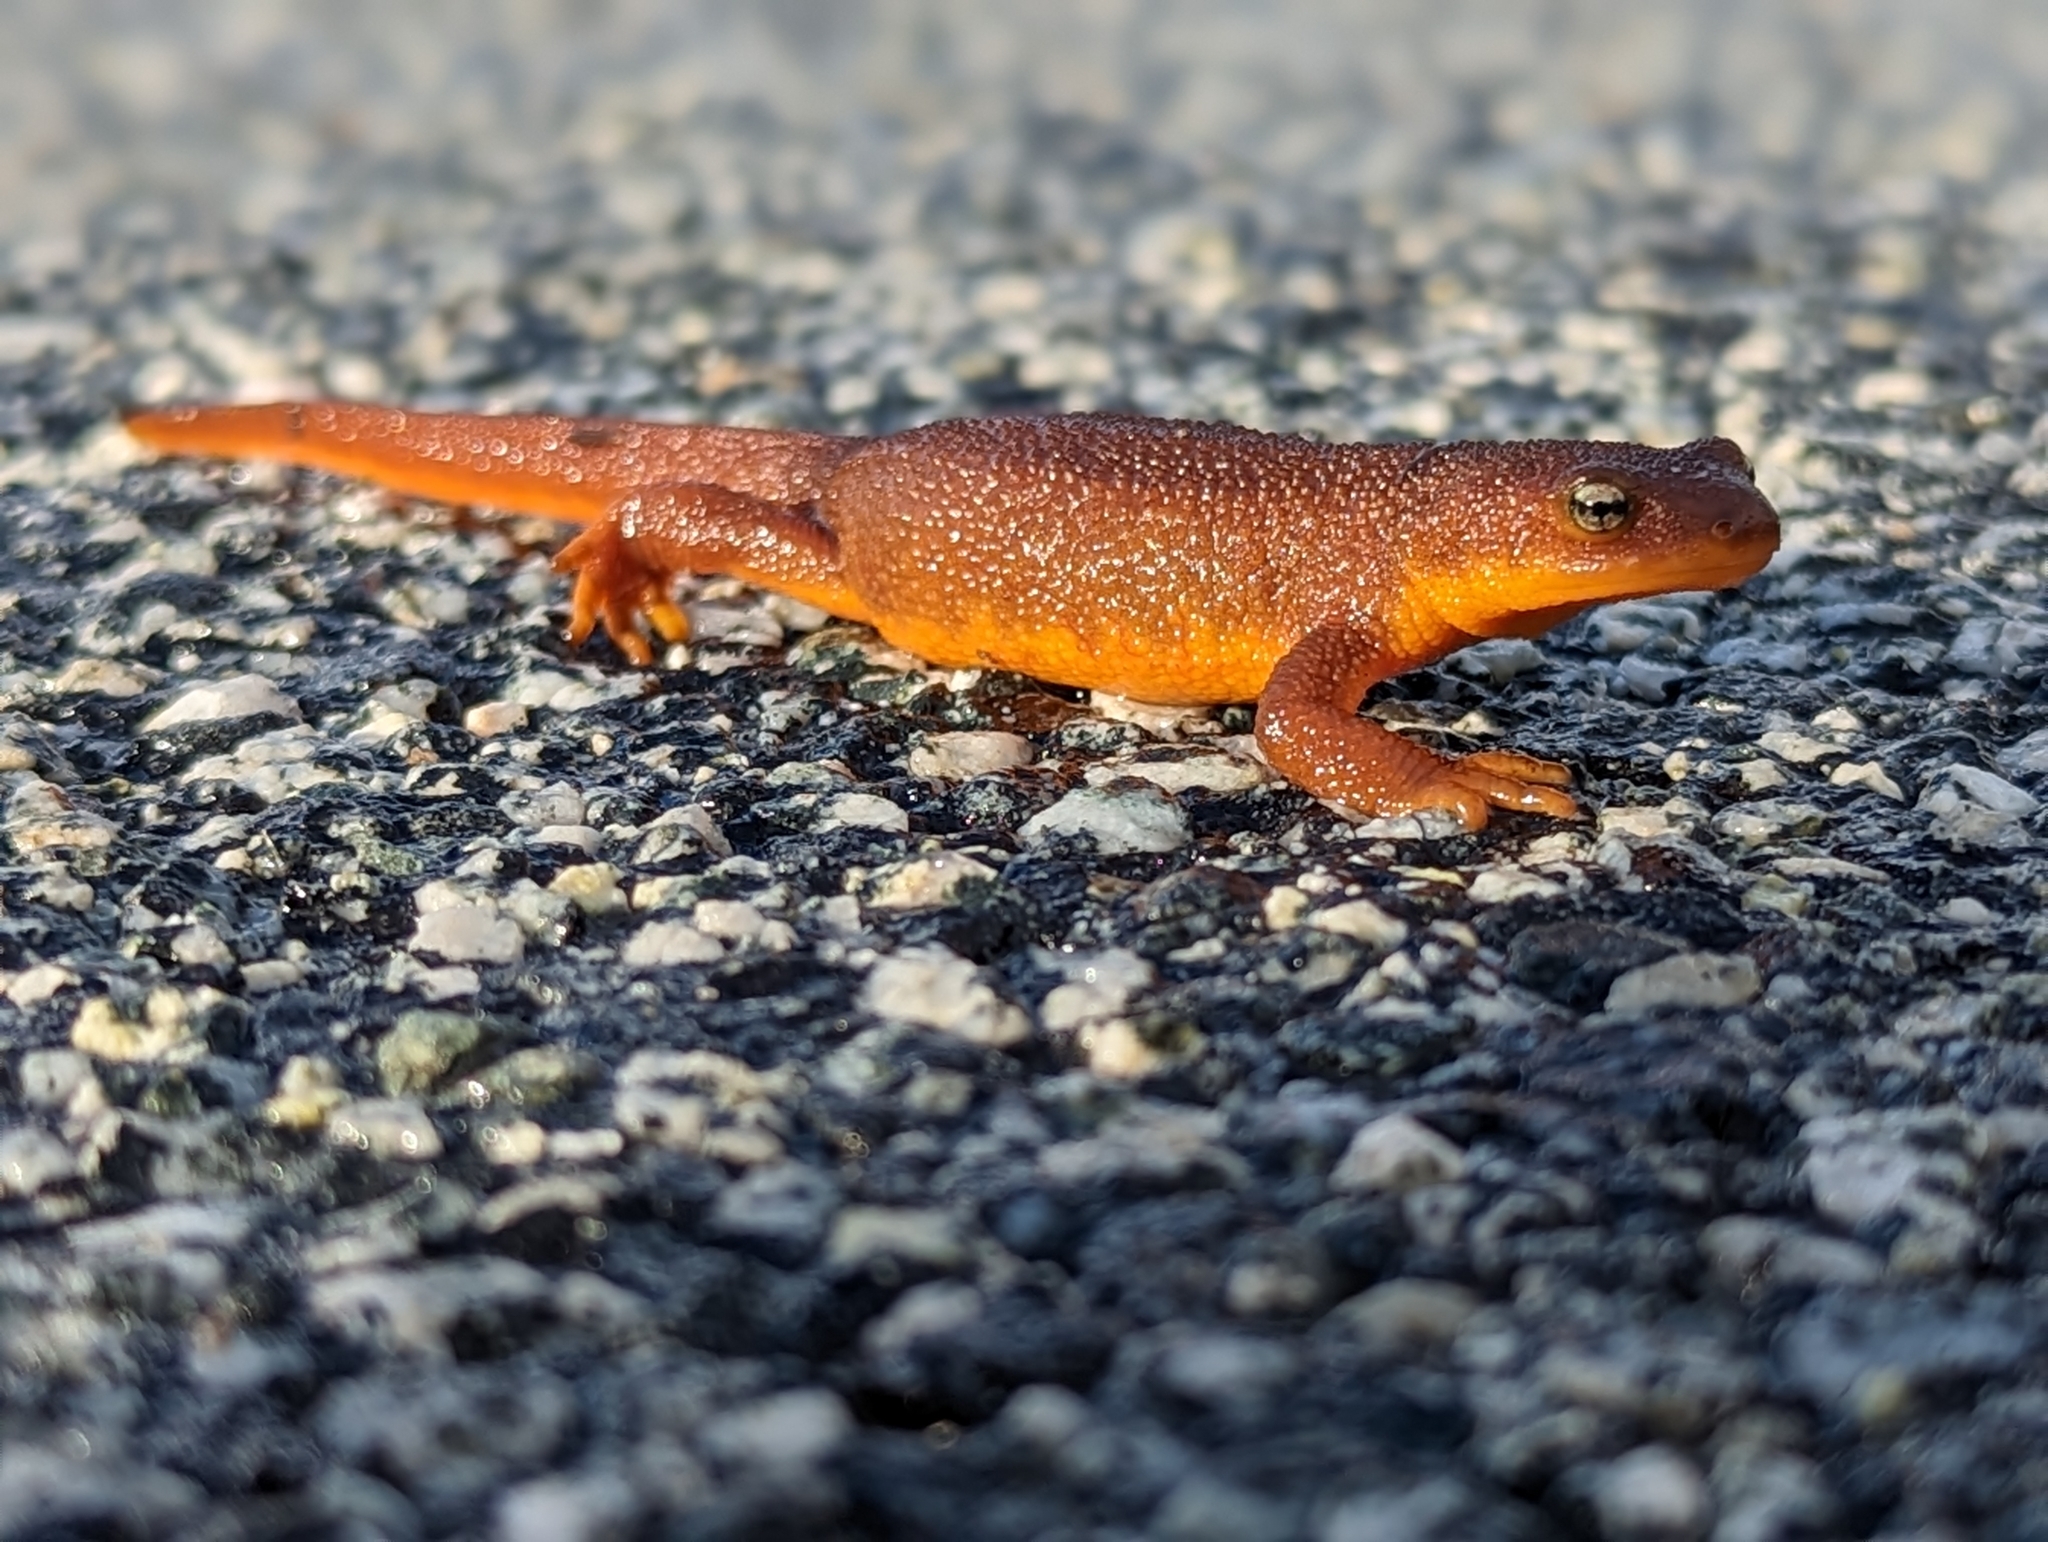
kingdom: Animalia
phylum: Chordata
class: Amphibia
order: Caudata
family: Salamandridae
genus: Taricha
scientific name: Taricha granulosa
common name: Roughskin newt
